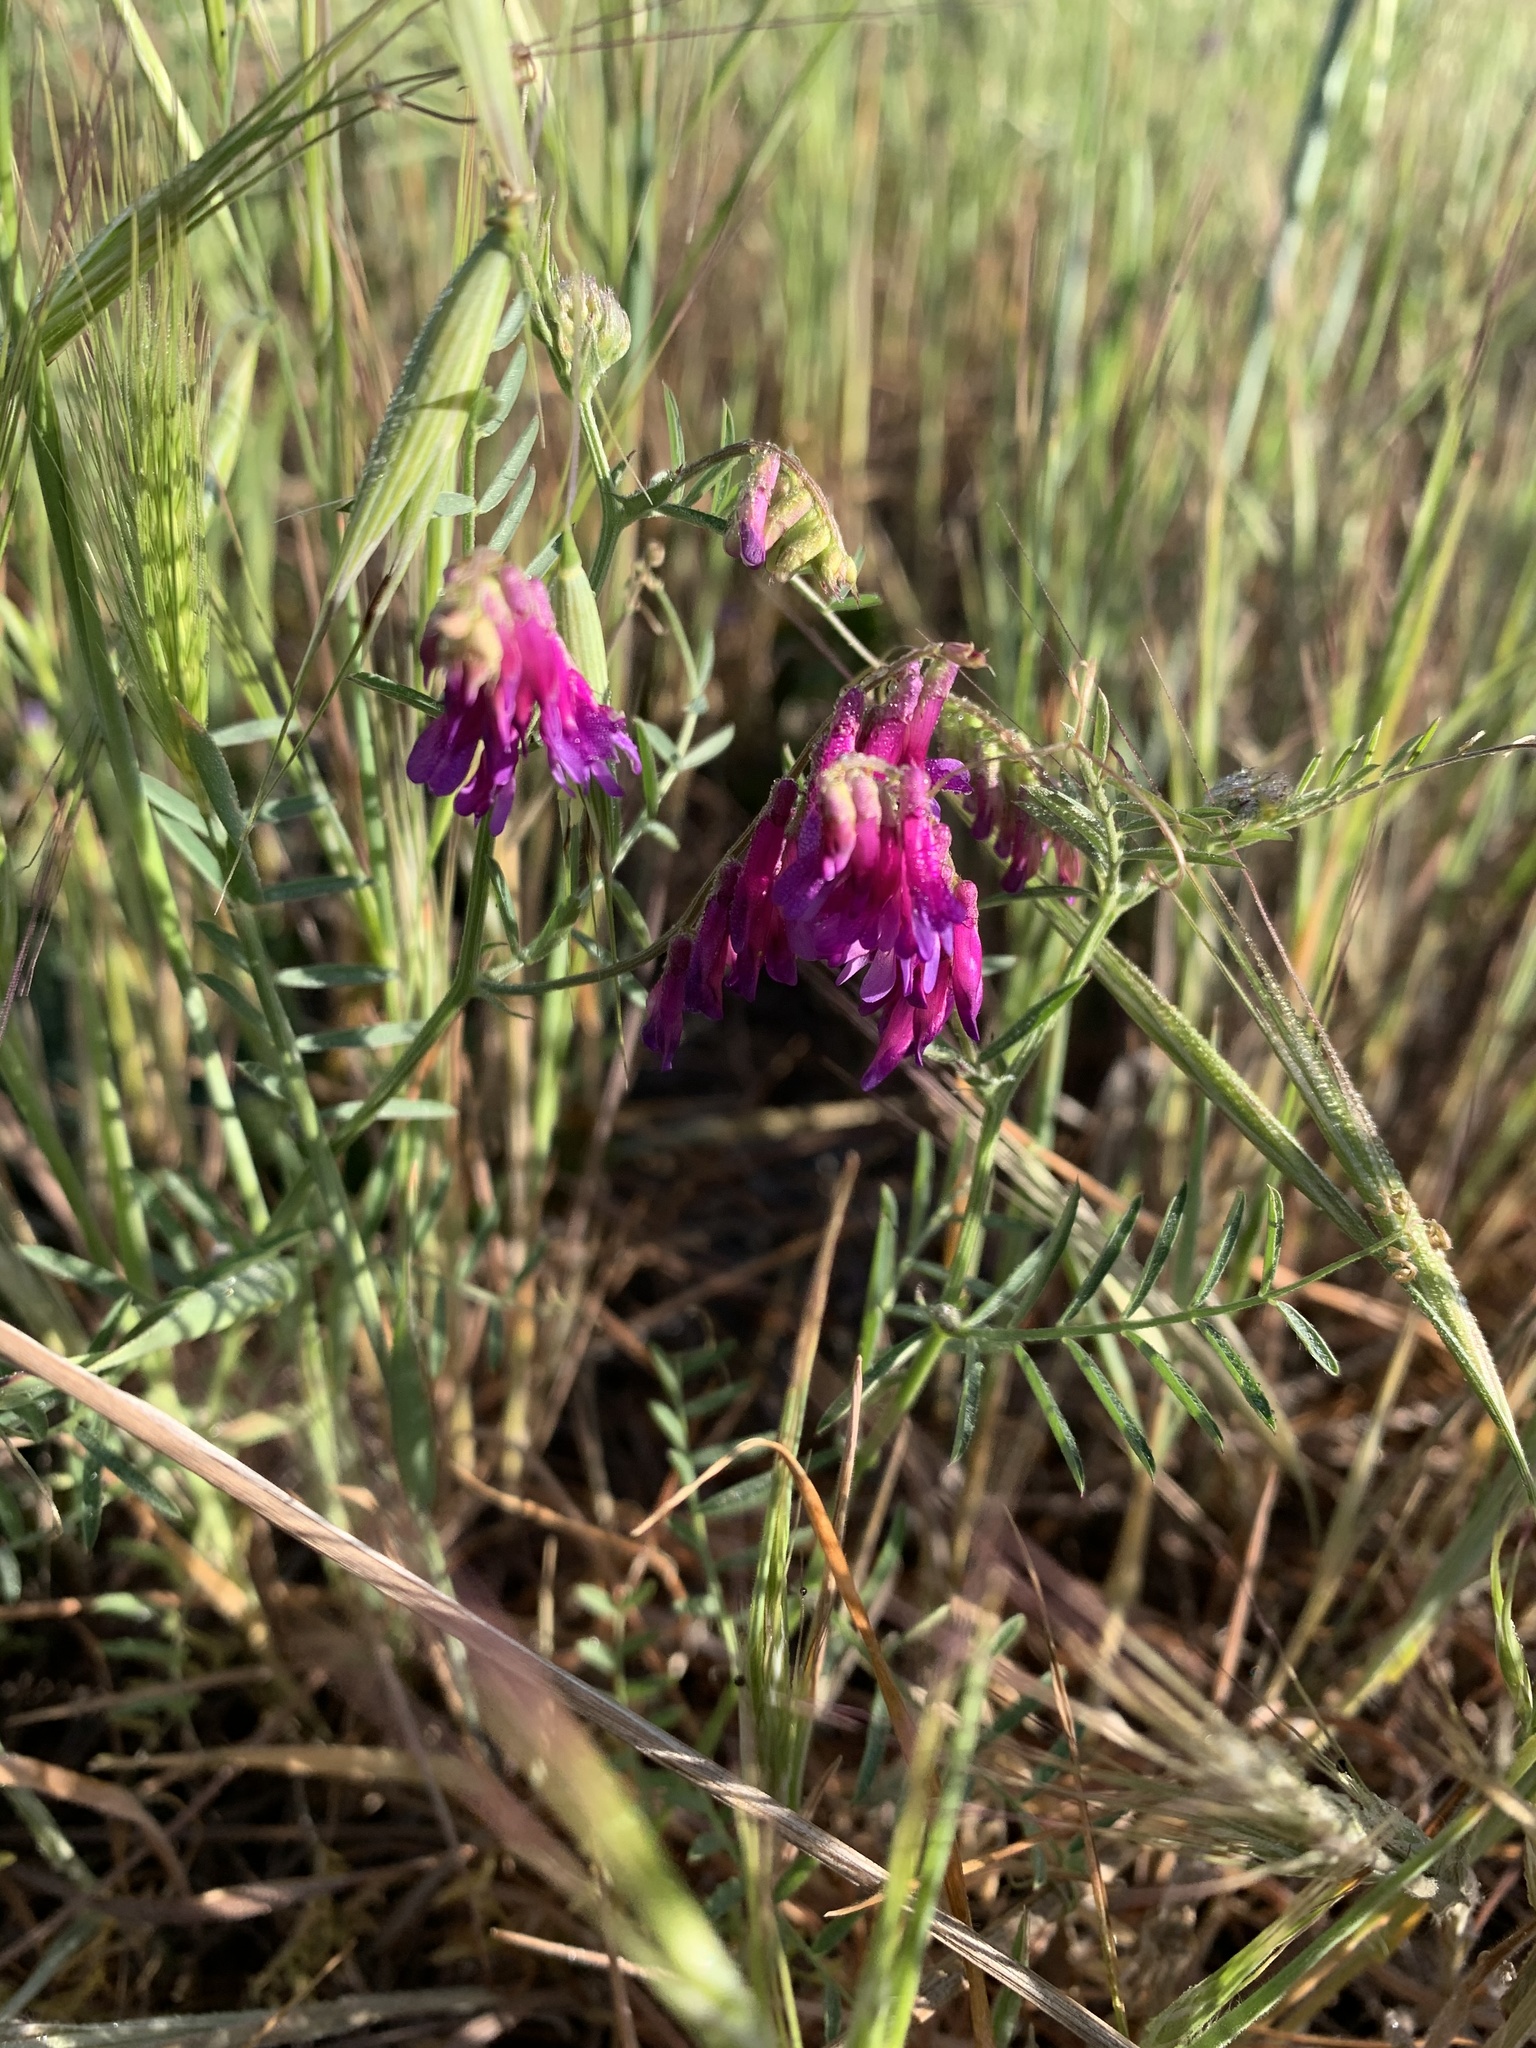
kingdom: Plantae
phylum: Tracheophyta
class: Magnoliopsida
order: Fabales
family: Fabaceae
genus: Vicia
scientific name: Vicia villosa
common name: Fodder vetch
